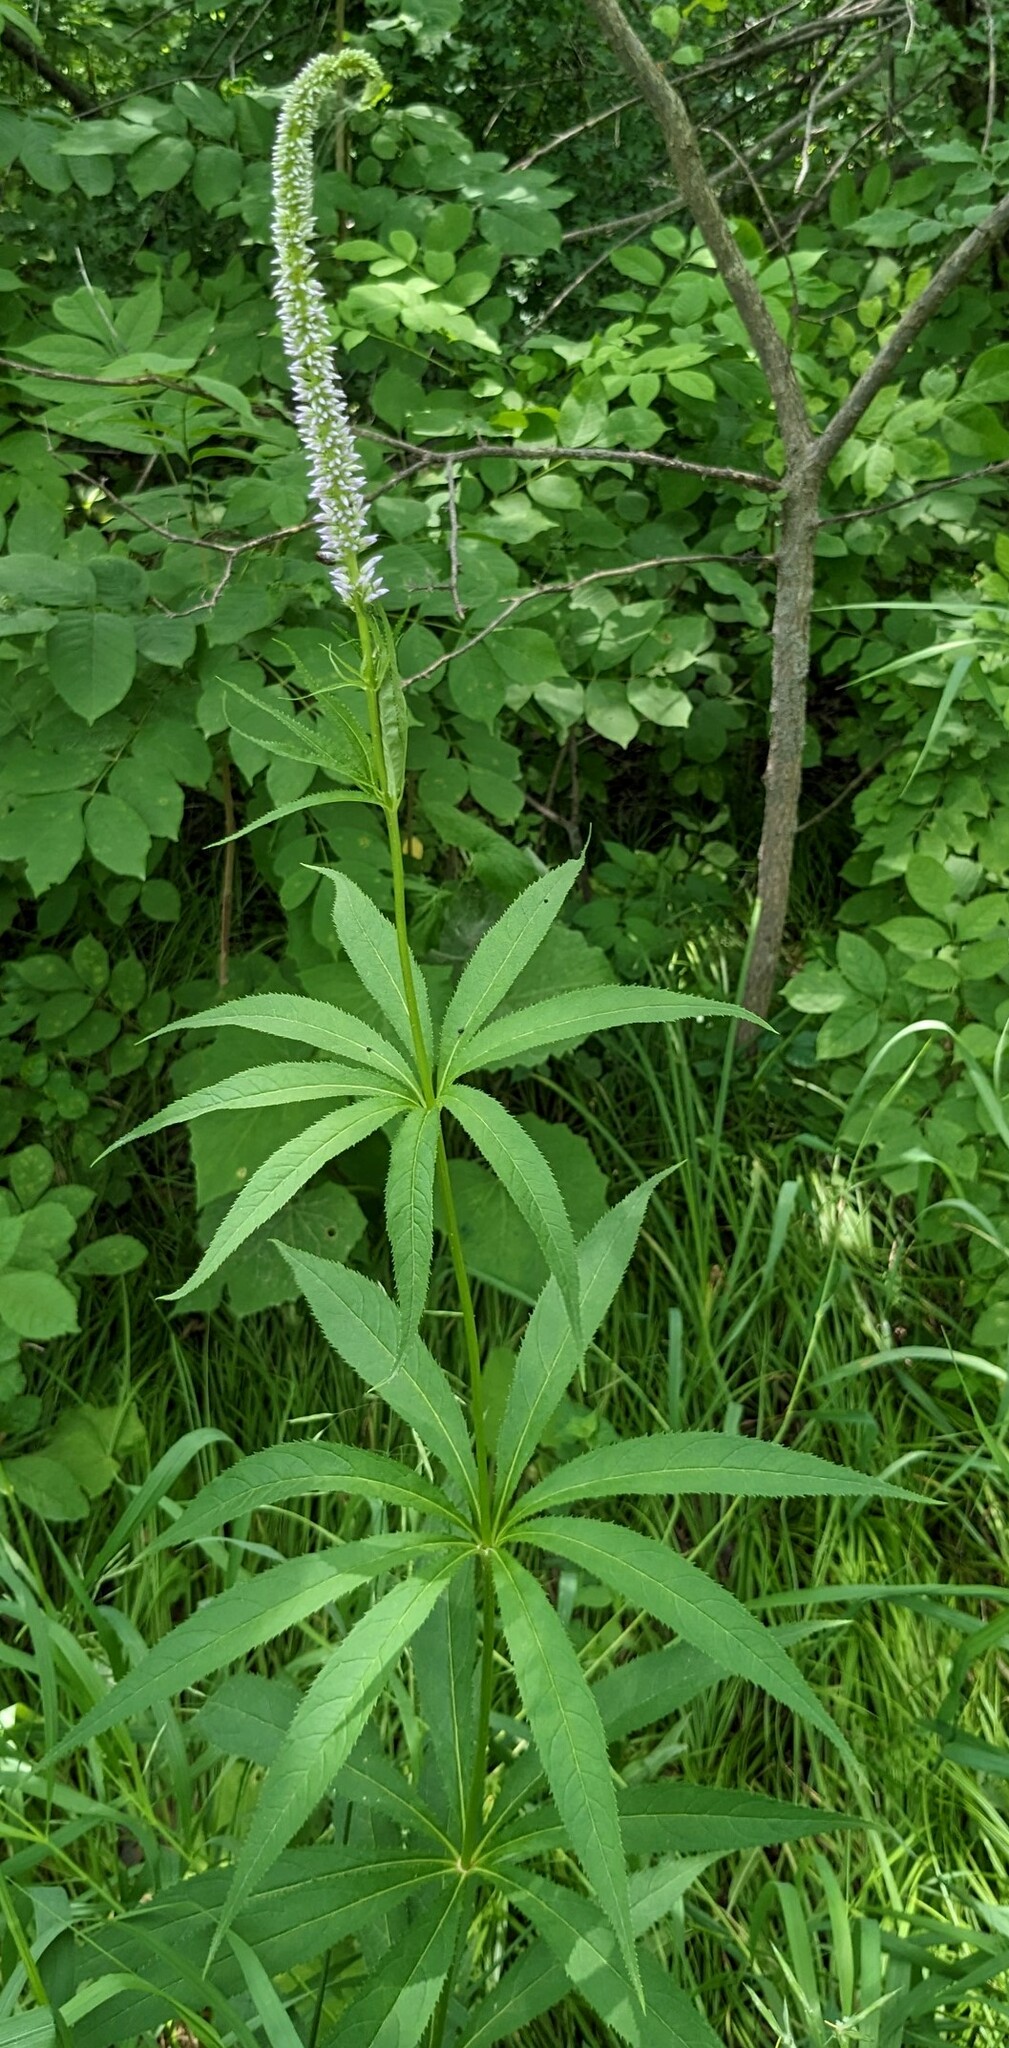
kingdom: Plantae
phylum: Tracheophyta
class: Magnoliopsida
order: Lamiales
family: Plantaginaceae
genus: Veronicastrum
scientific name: Veronicastrum sibiricum
